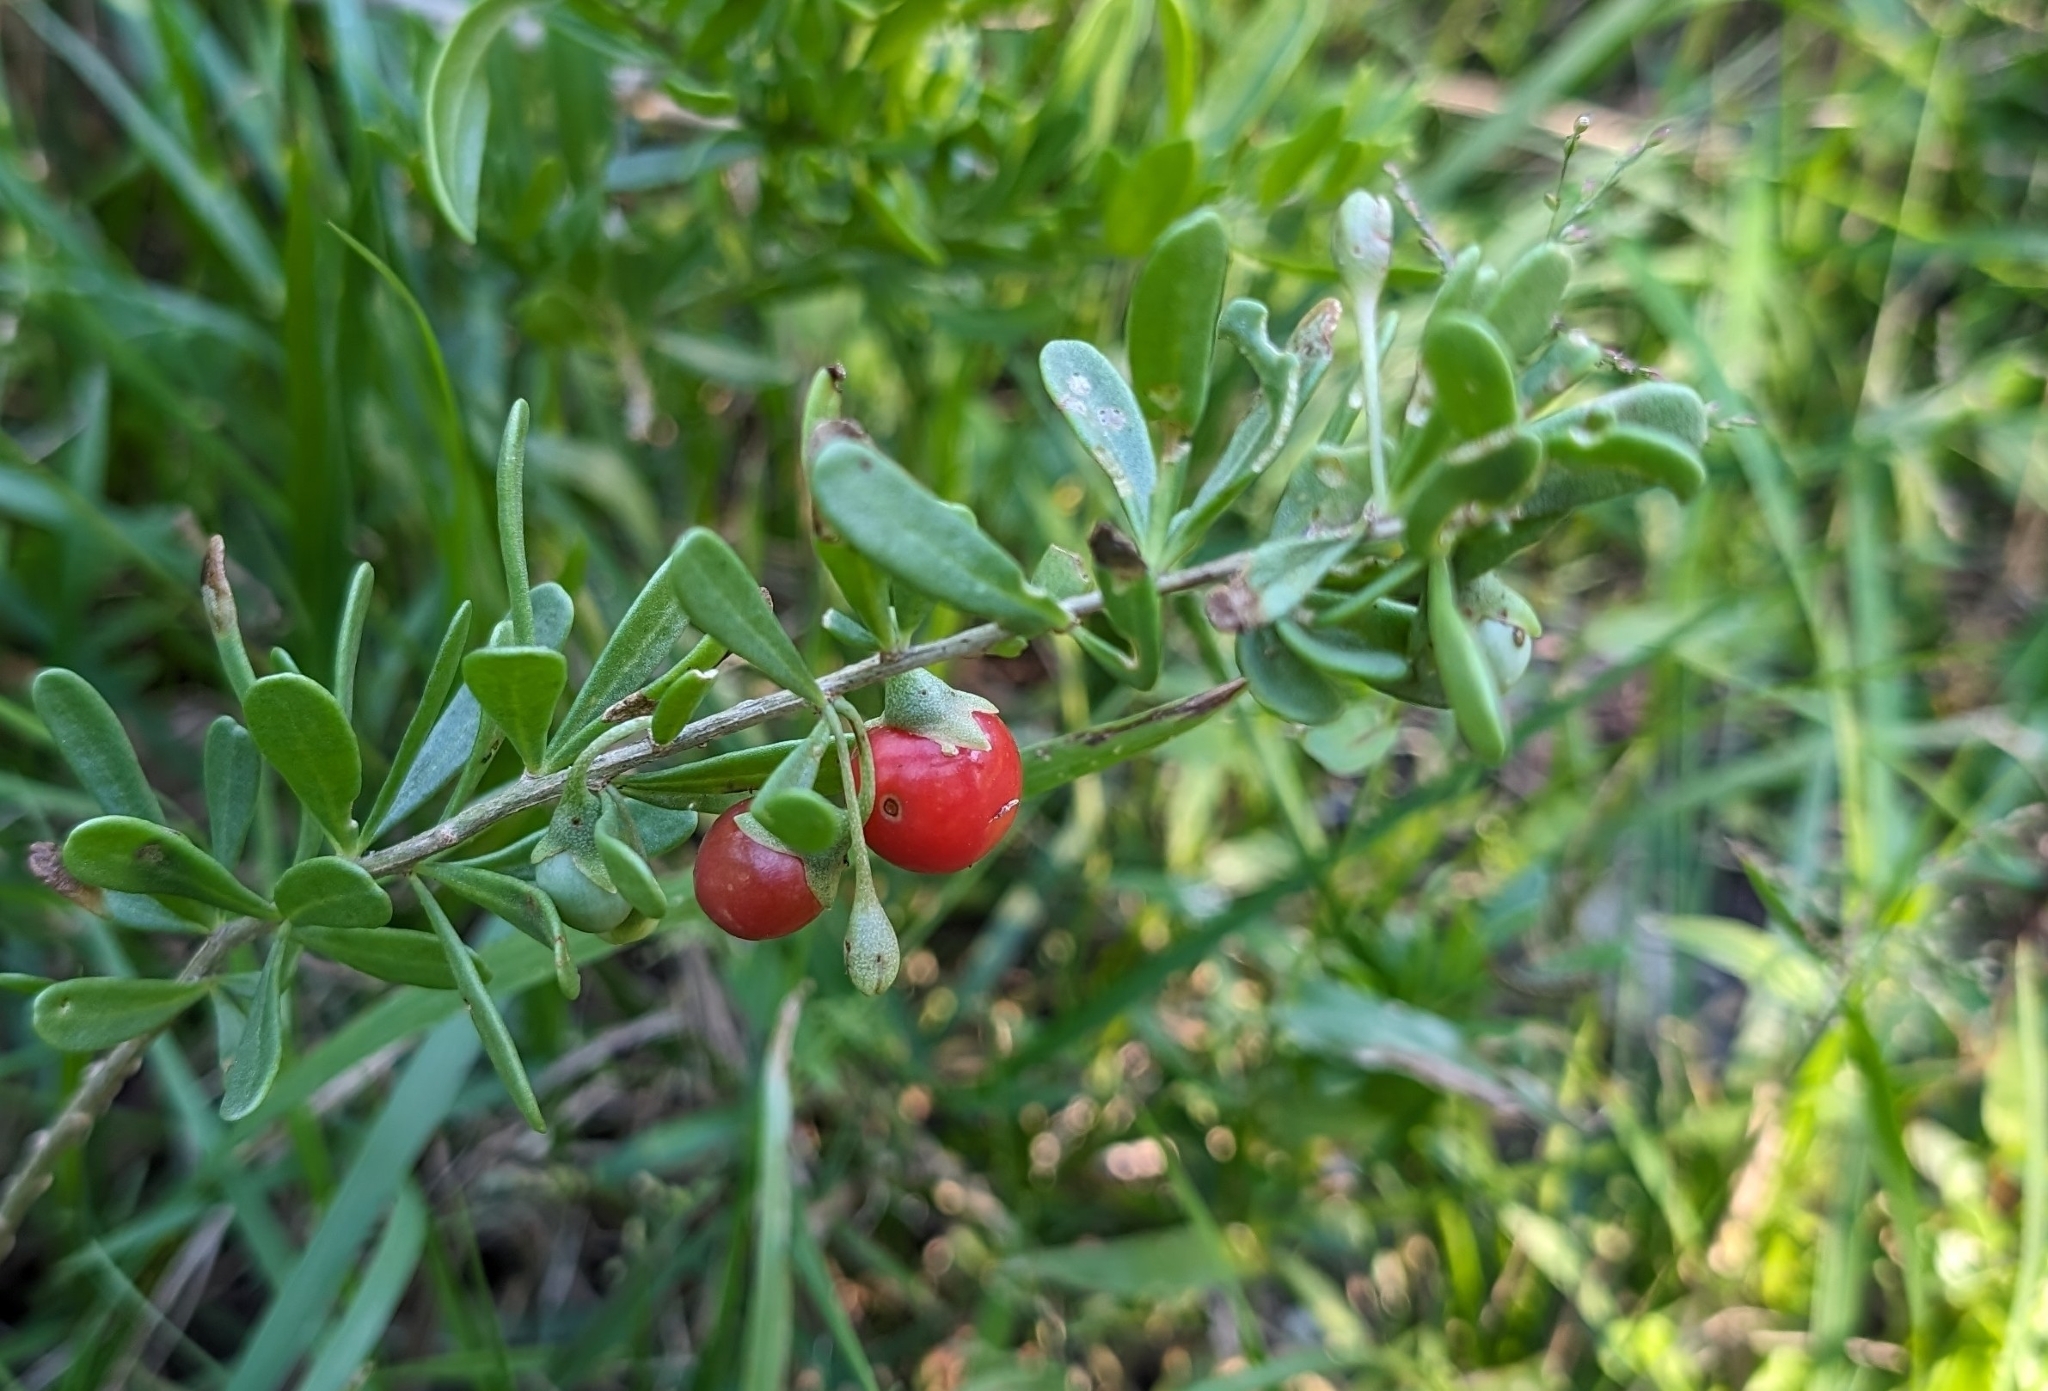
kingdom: Plantae
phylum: Tracheophyta
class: Magnoliopsida
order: Solanales
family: Solanaceae
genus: Lycium
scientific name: Lycium carolinianum
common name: Christmasberry
